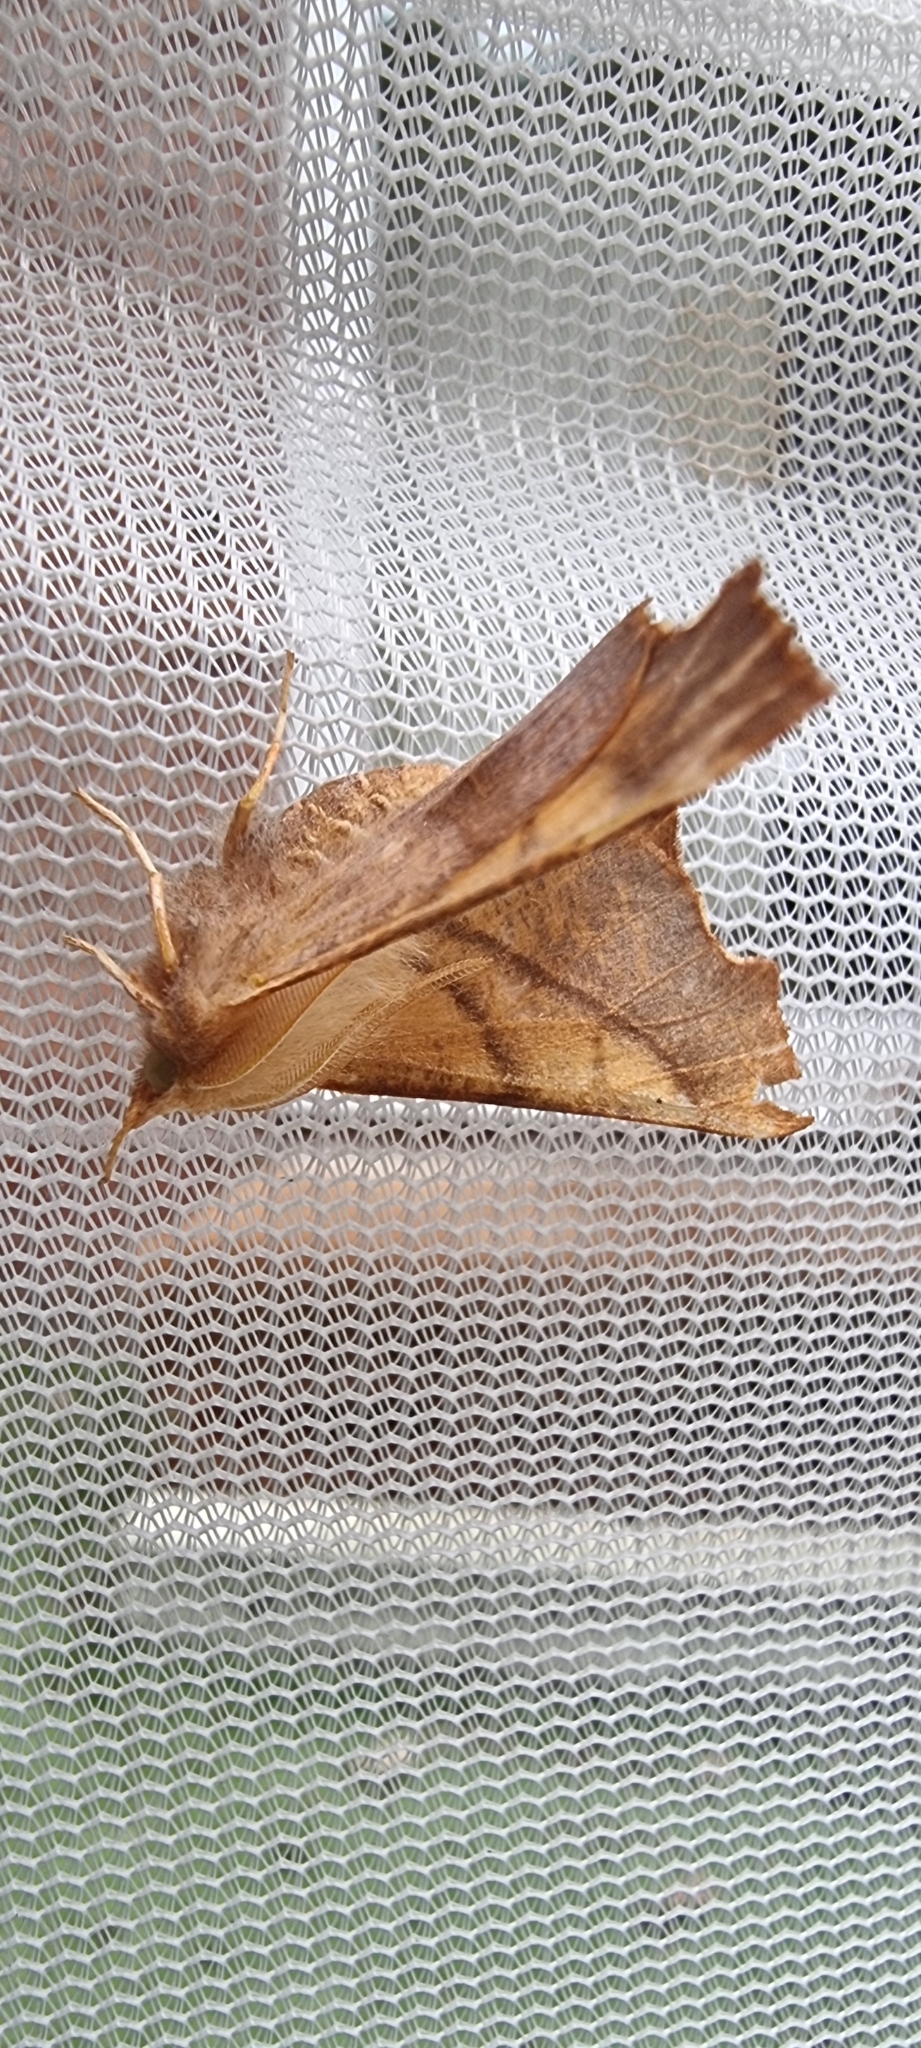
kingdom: Animalia
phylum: Arthropoda
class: Insecta
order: Lepidoptera
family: Geometridae
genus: Ennomos
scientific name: Ennomos fuscantaria
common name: Dusky thorn
